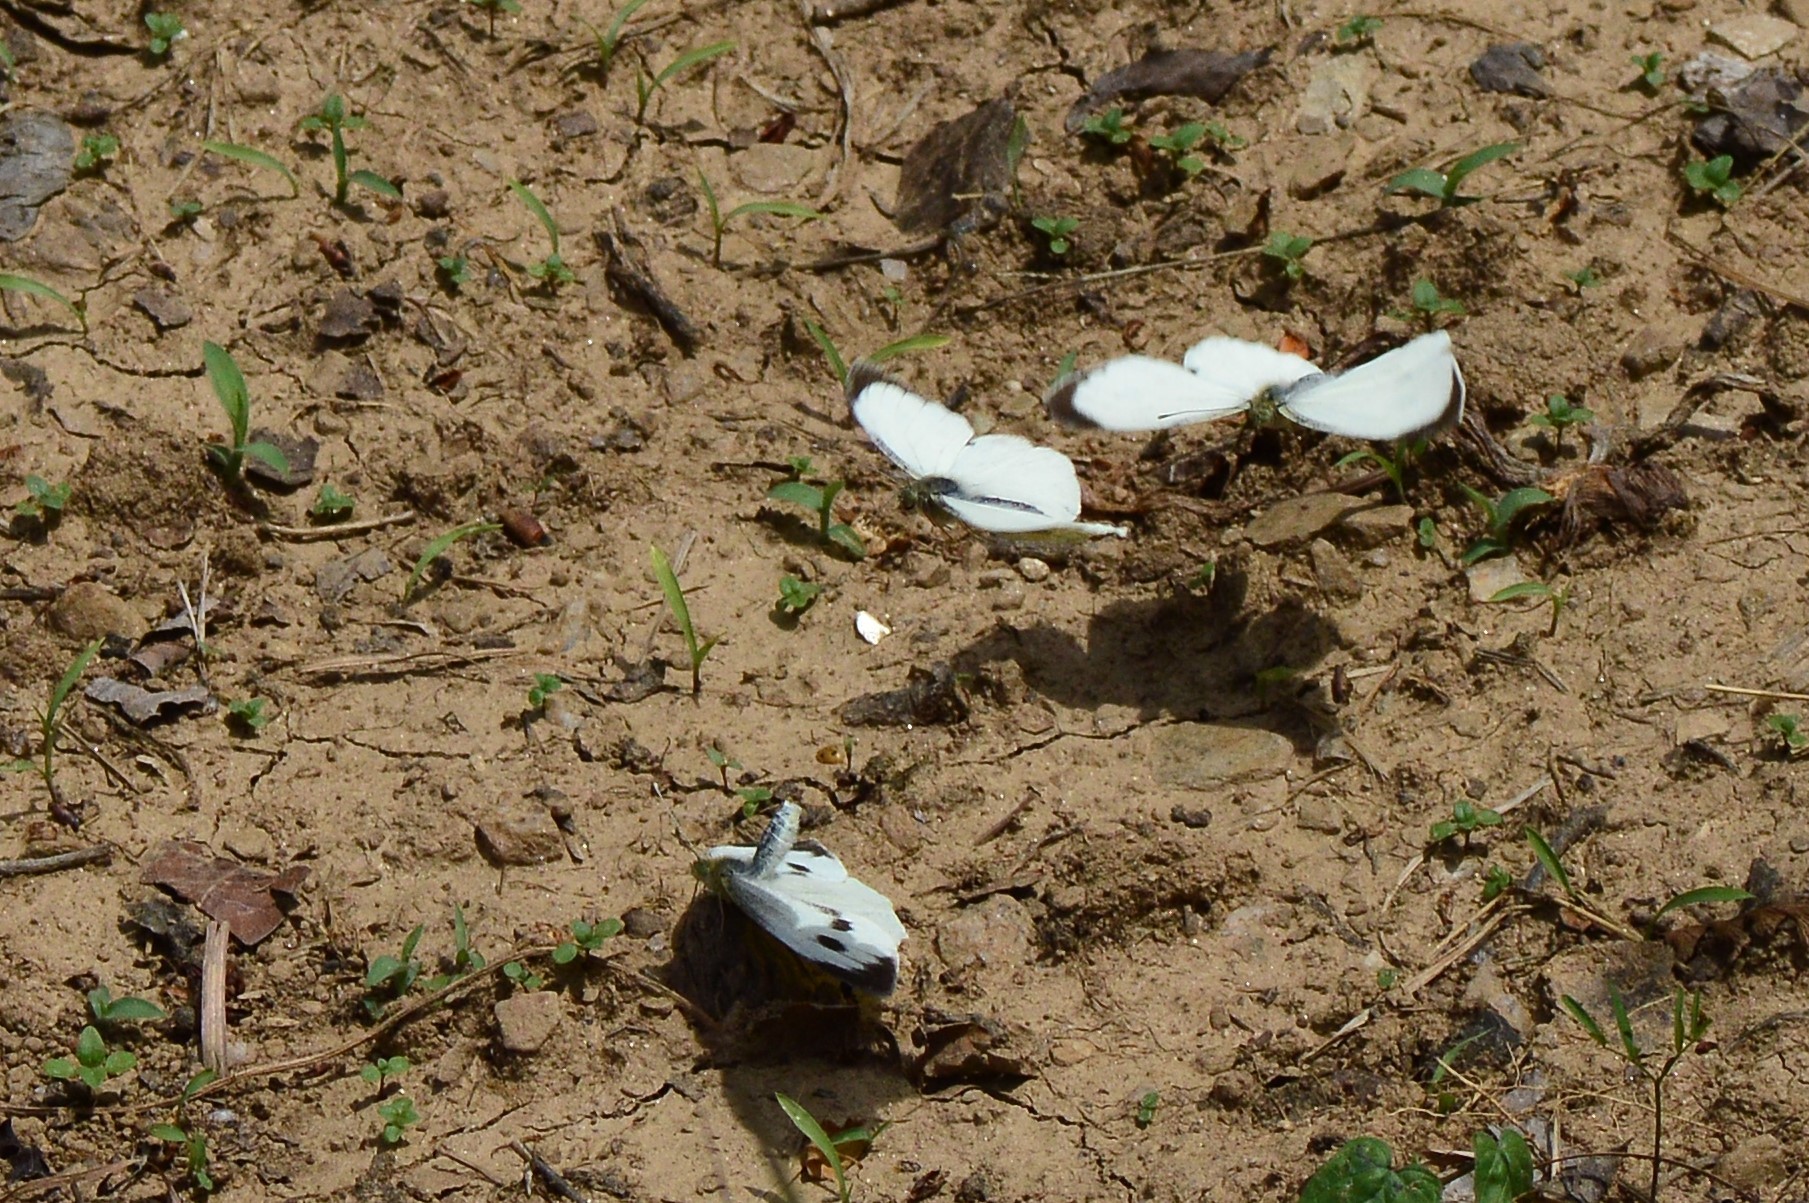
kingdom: Animalia
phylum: Arthropoda
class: Insecta
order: Lepidoptera
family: Pieridae
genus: Pieris
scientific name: Pieris canidia
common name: Indian cabbage white
